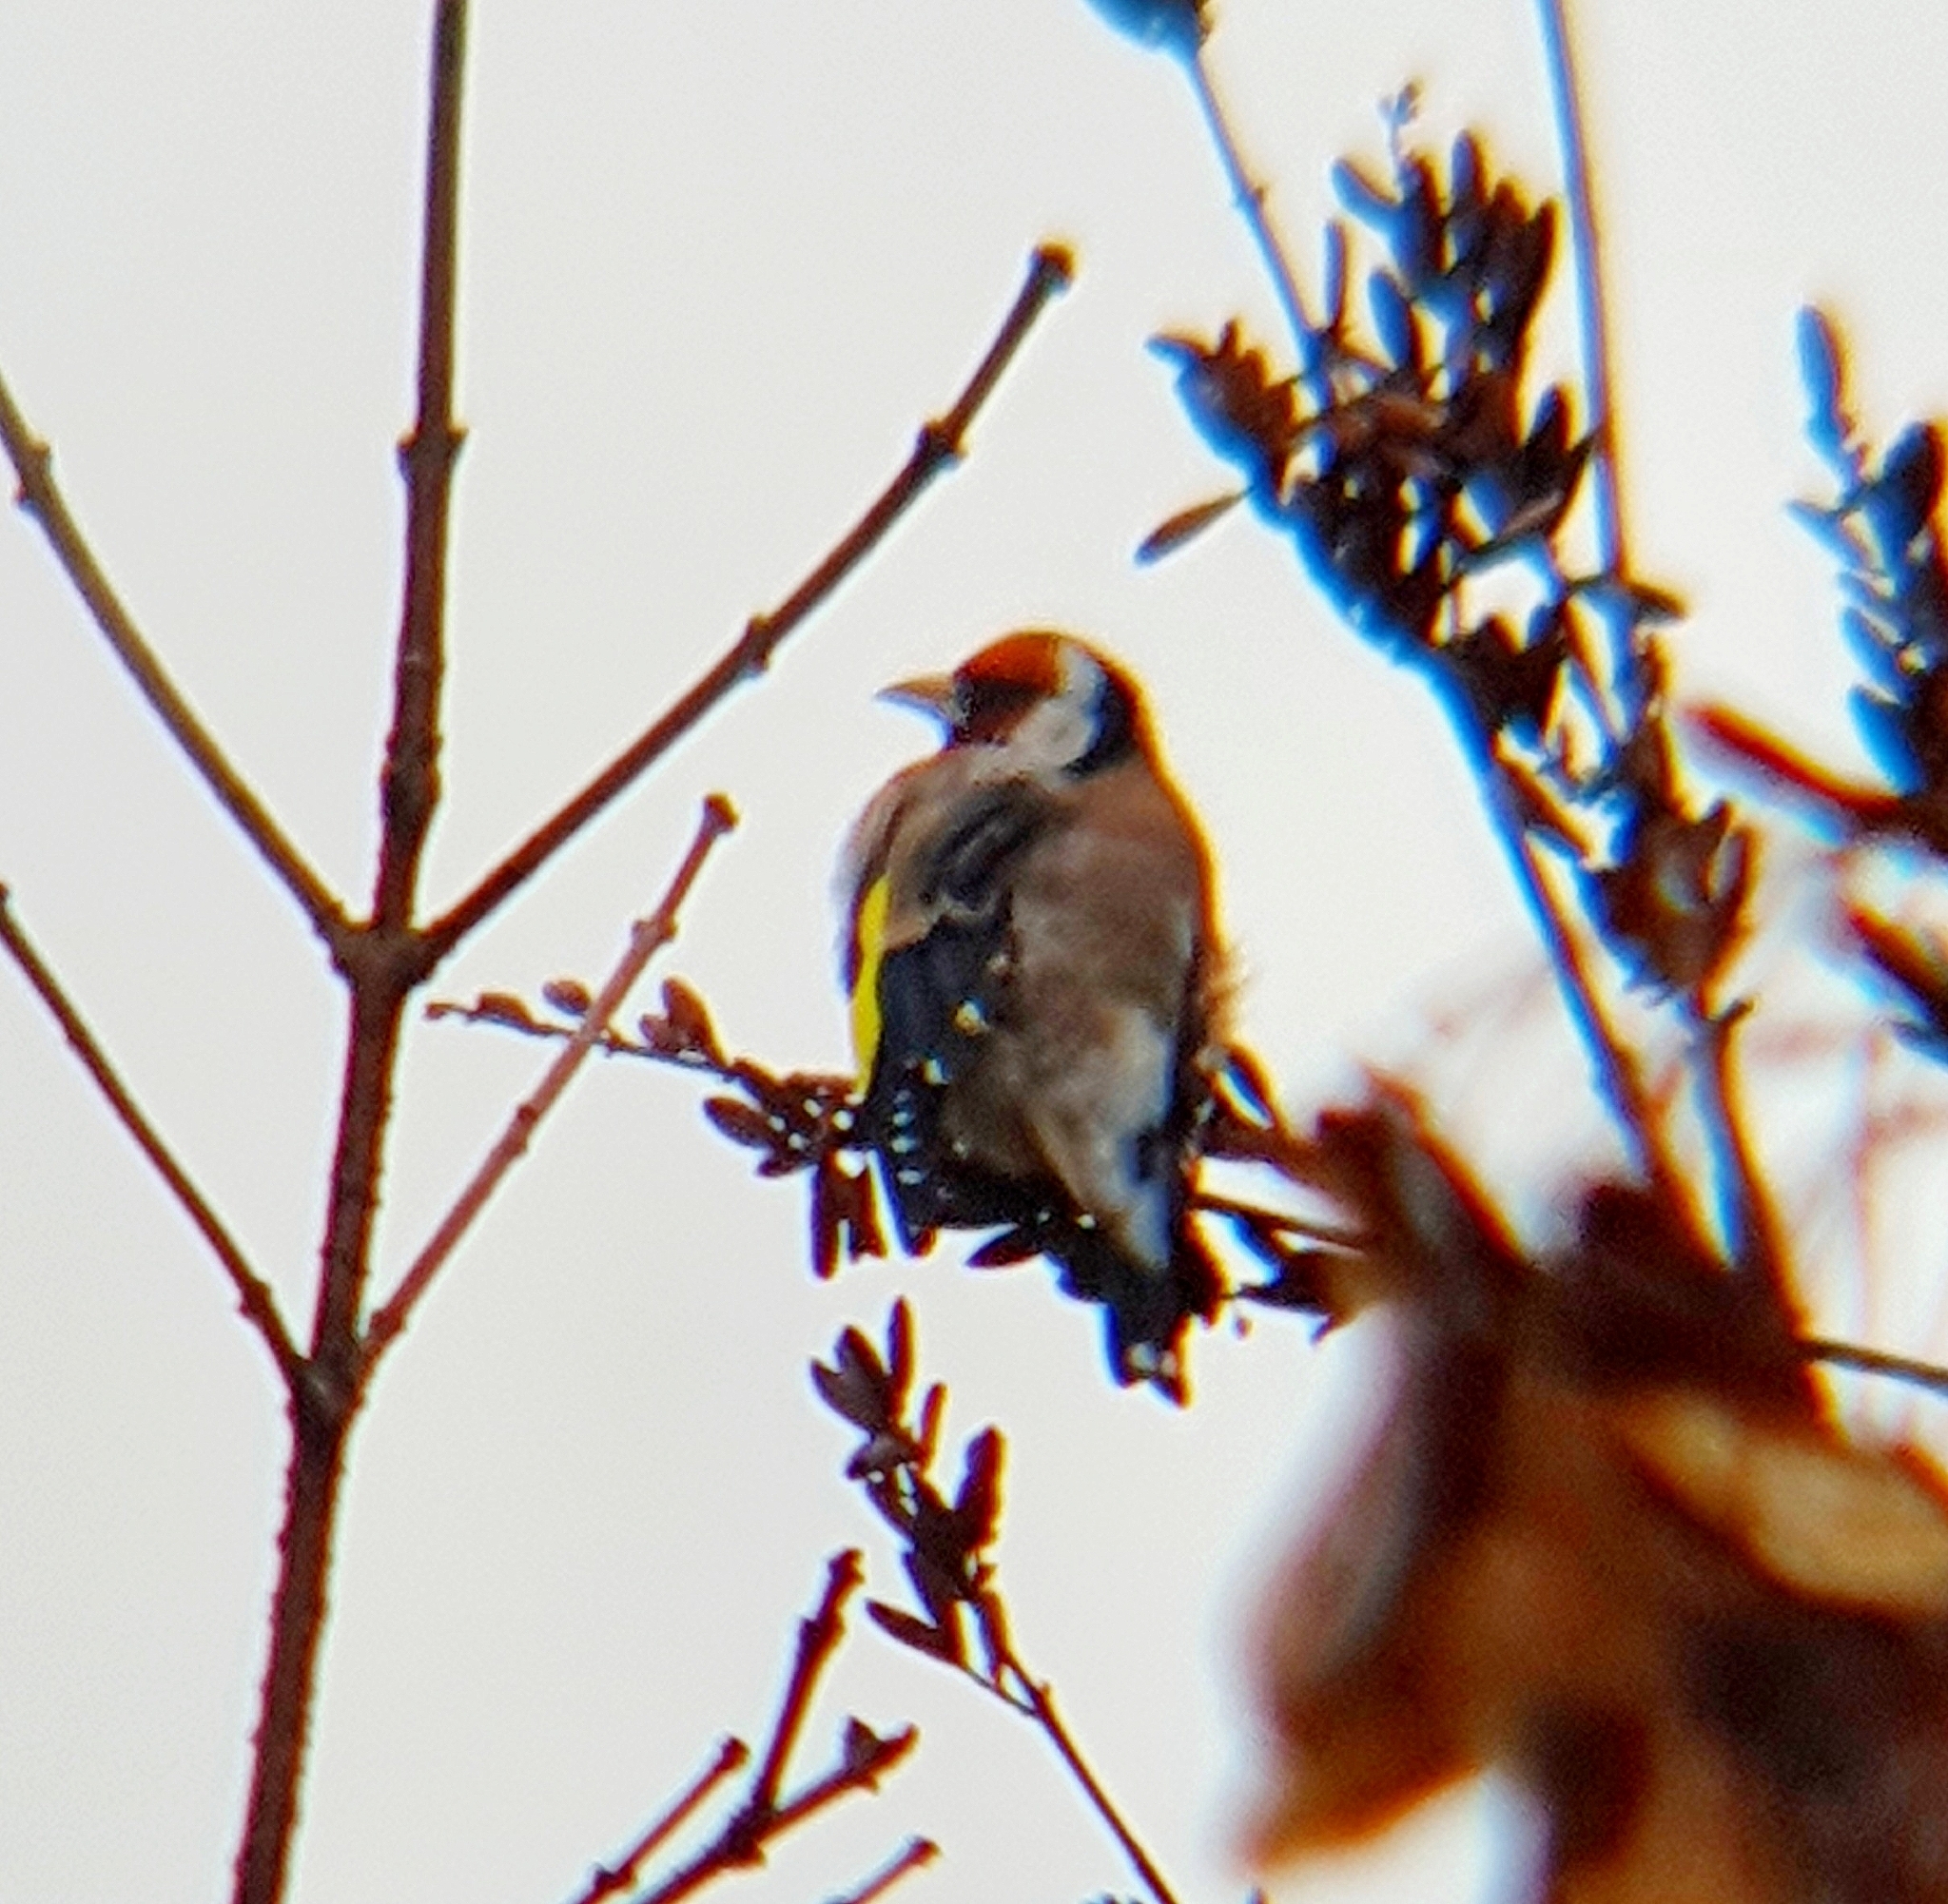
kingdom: Animalia
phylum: Chordata
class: Aves
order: Passeriformes
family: Fringillidae
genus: Carduelis
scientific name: Carduelis carduelis
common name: European goldfinch
